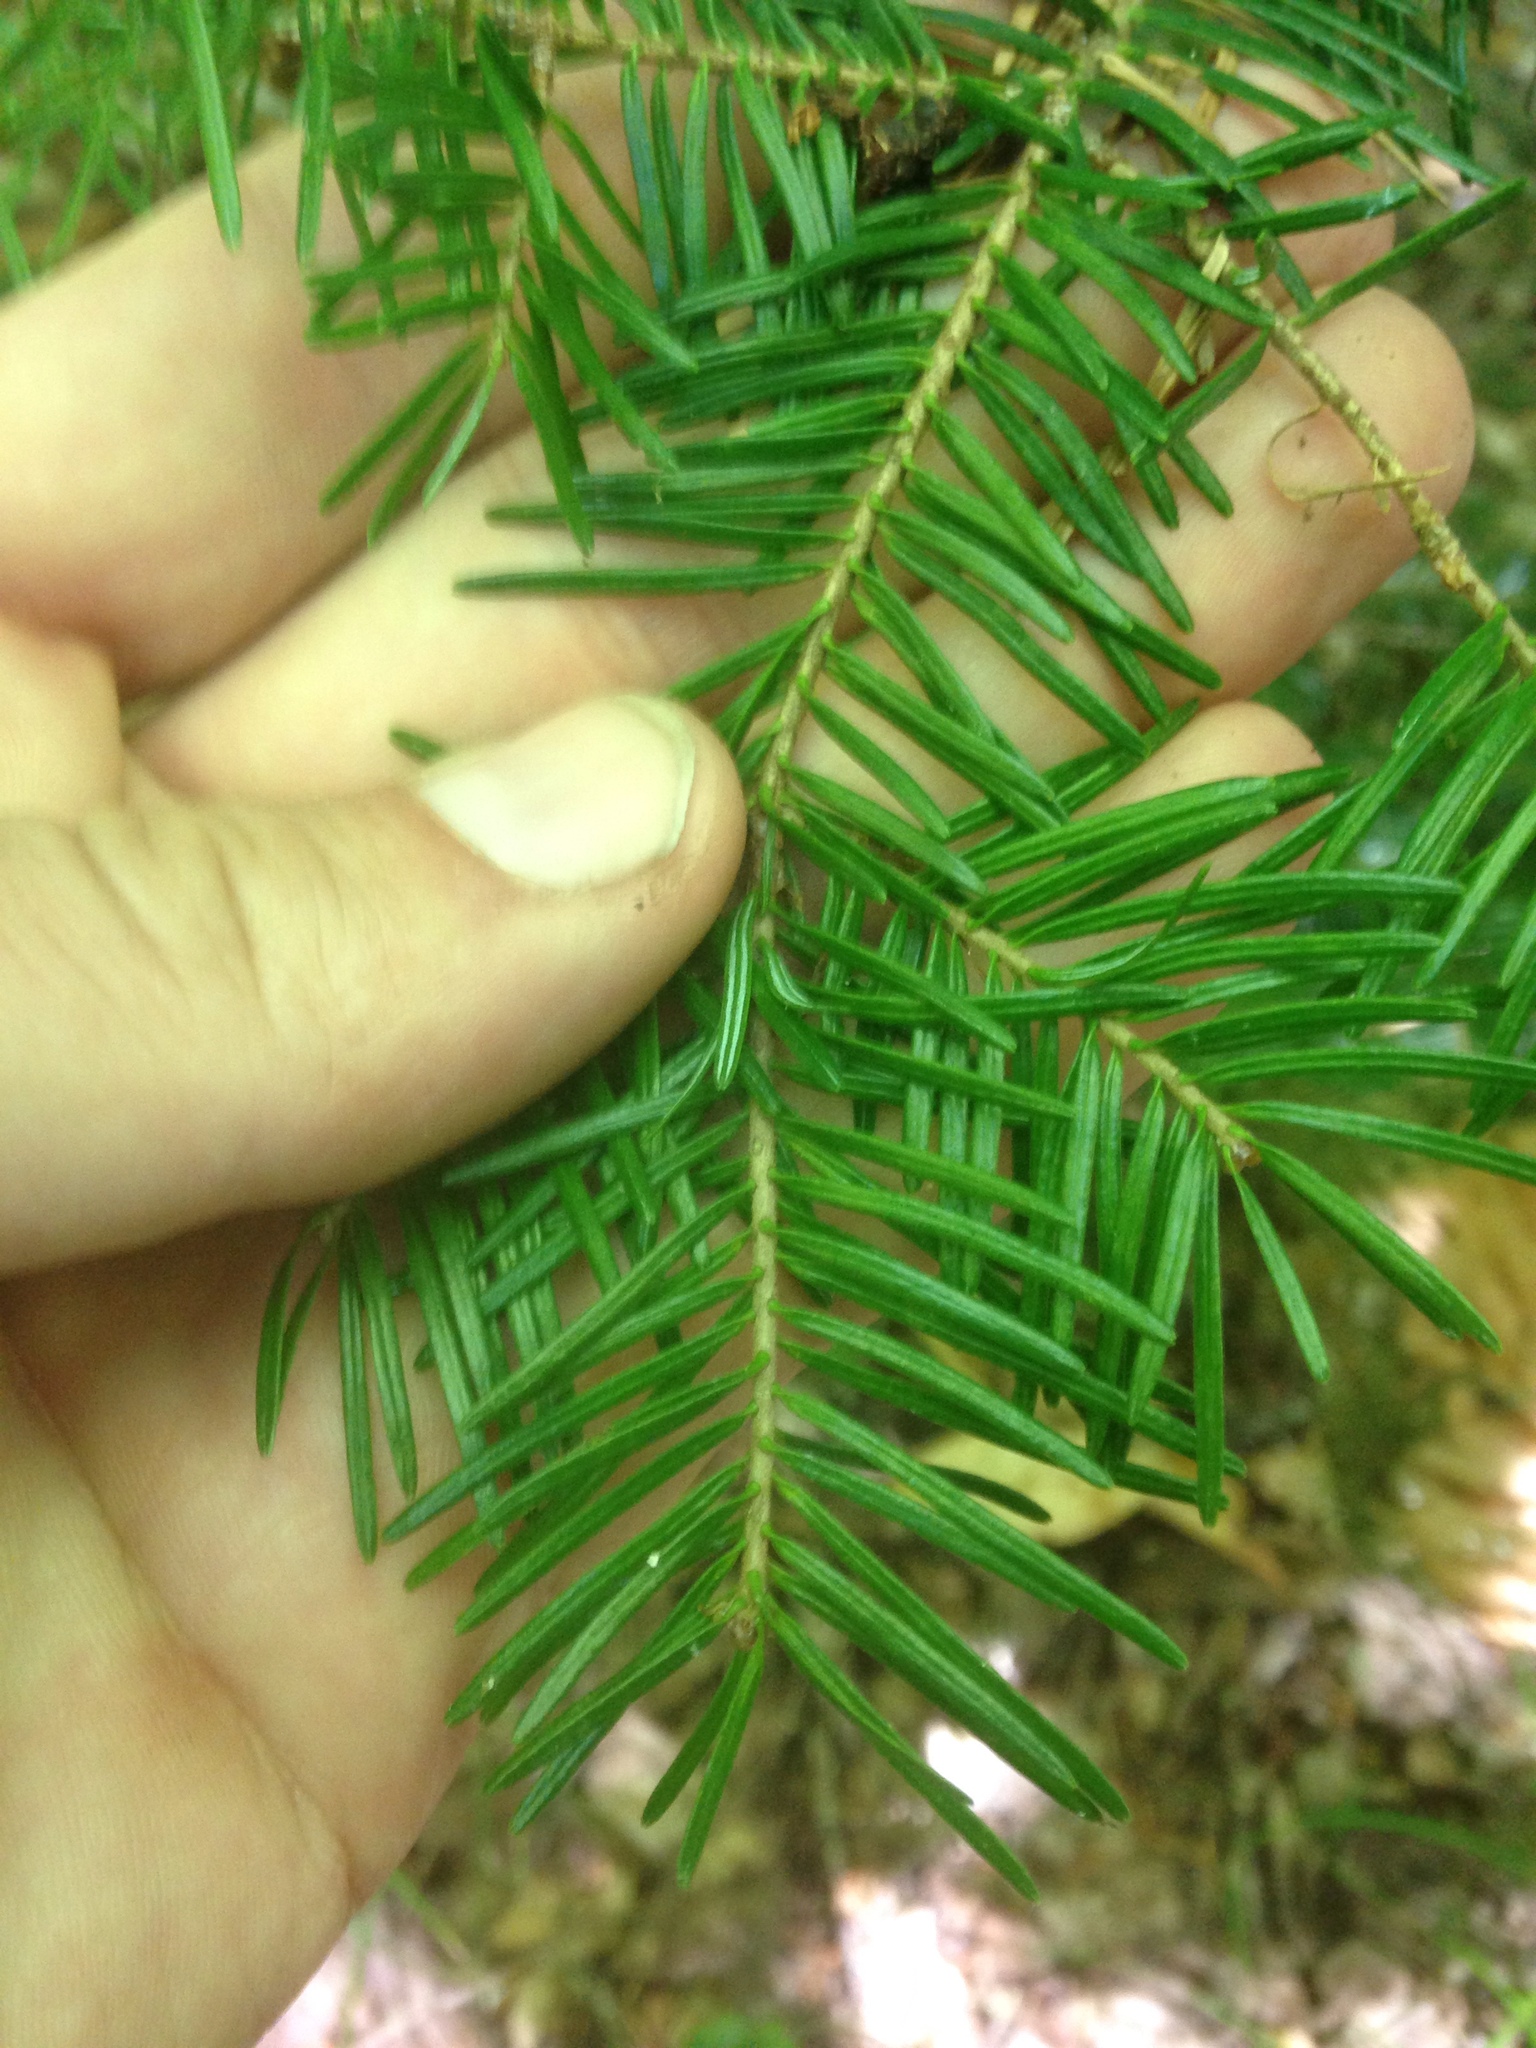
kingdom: Plantae
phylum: Tracheophyta
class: Pinopsida
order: Pinales
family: Pinaceae
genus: Abies
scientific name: Abies balsamea
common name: Balsam fir
